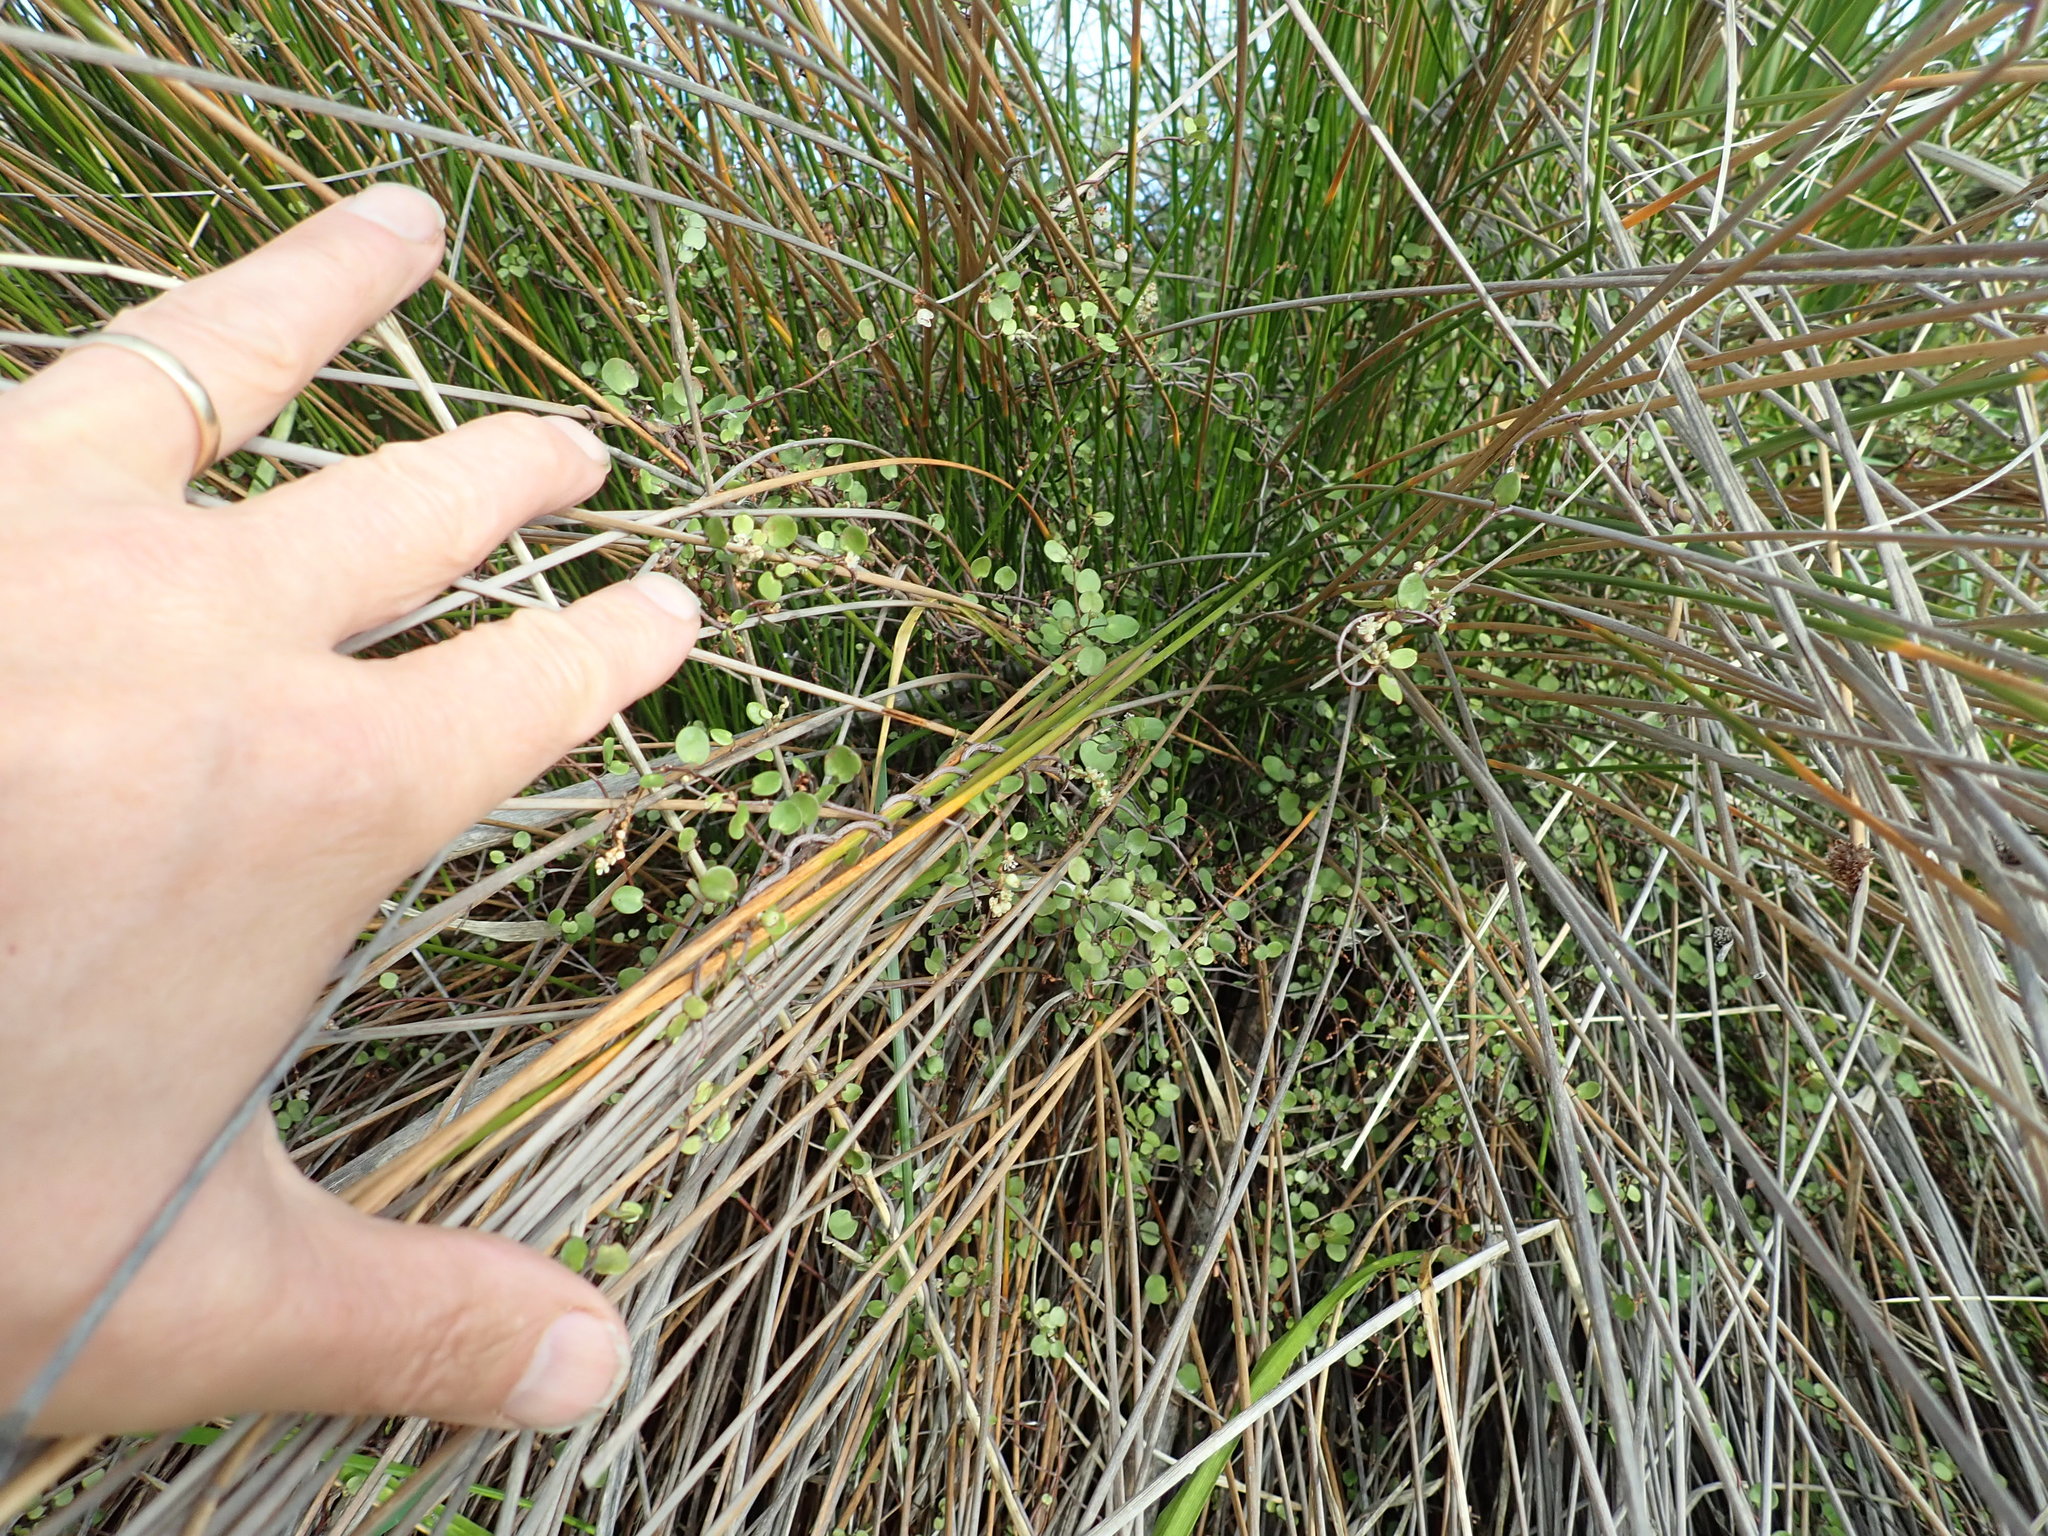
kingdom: Plantae
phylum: Tracheophyta
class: Magnoliopsida
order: Caryophyllales
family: Polygonaceae
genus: Muehlenbeckia
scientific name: Muehlenbeckia complexa
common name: Wireplant
